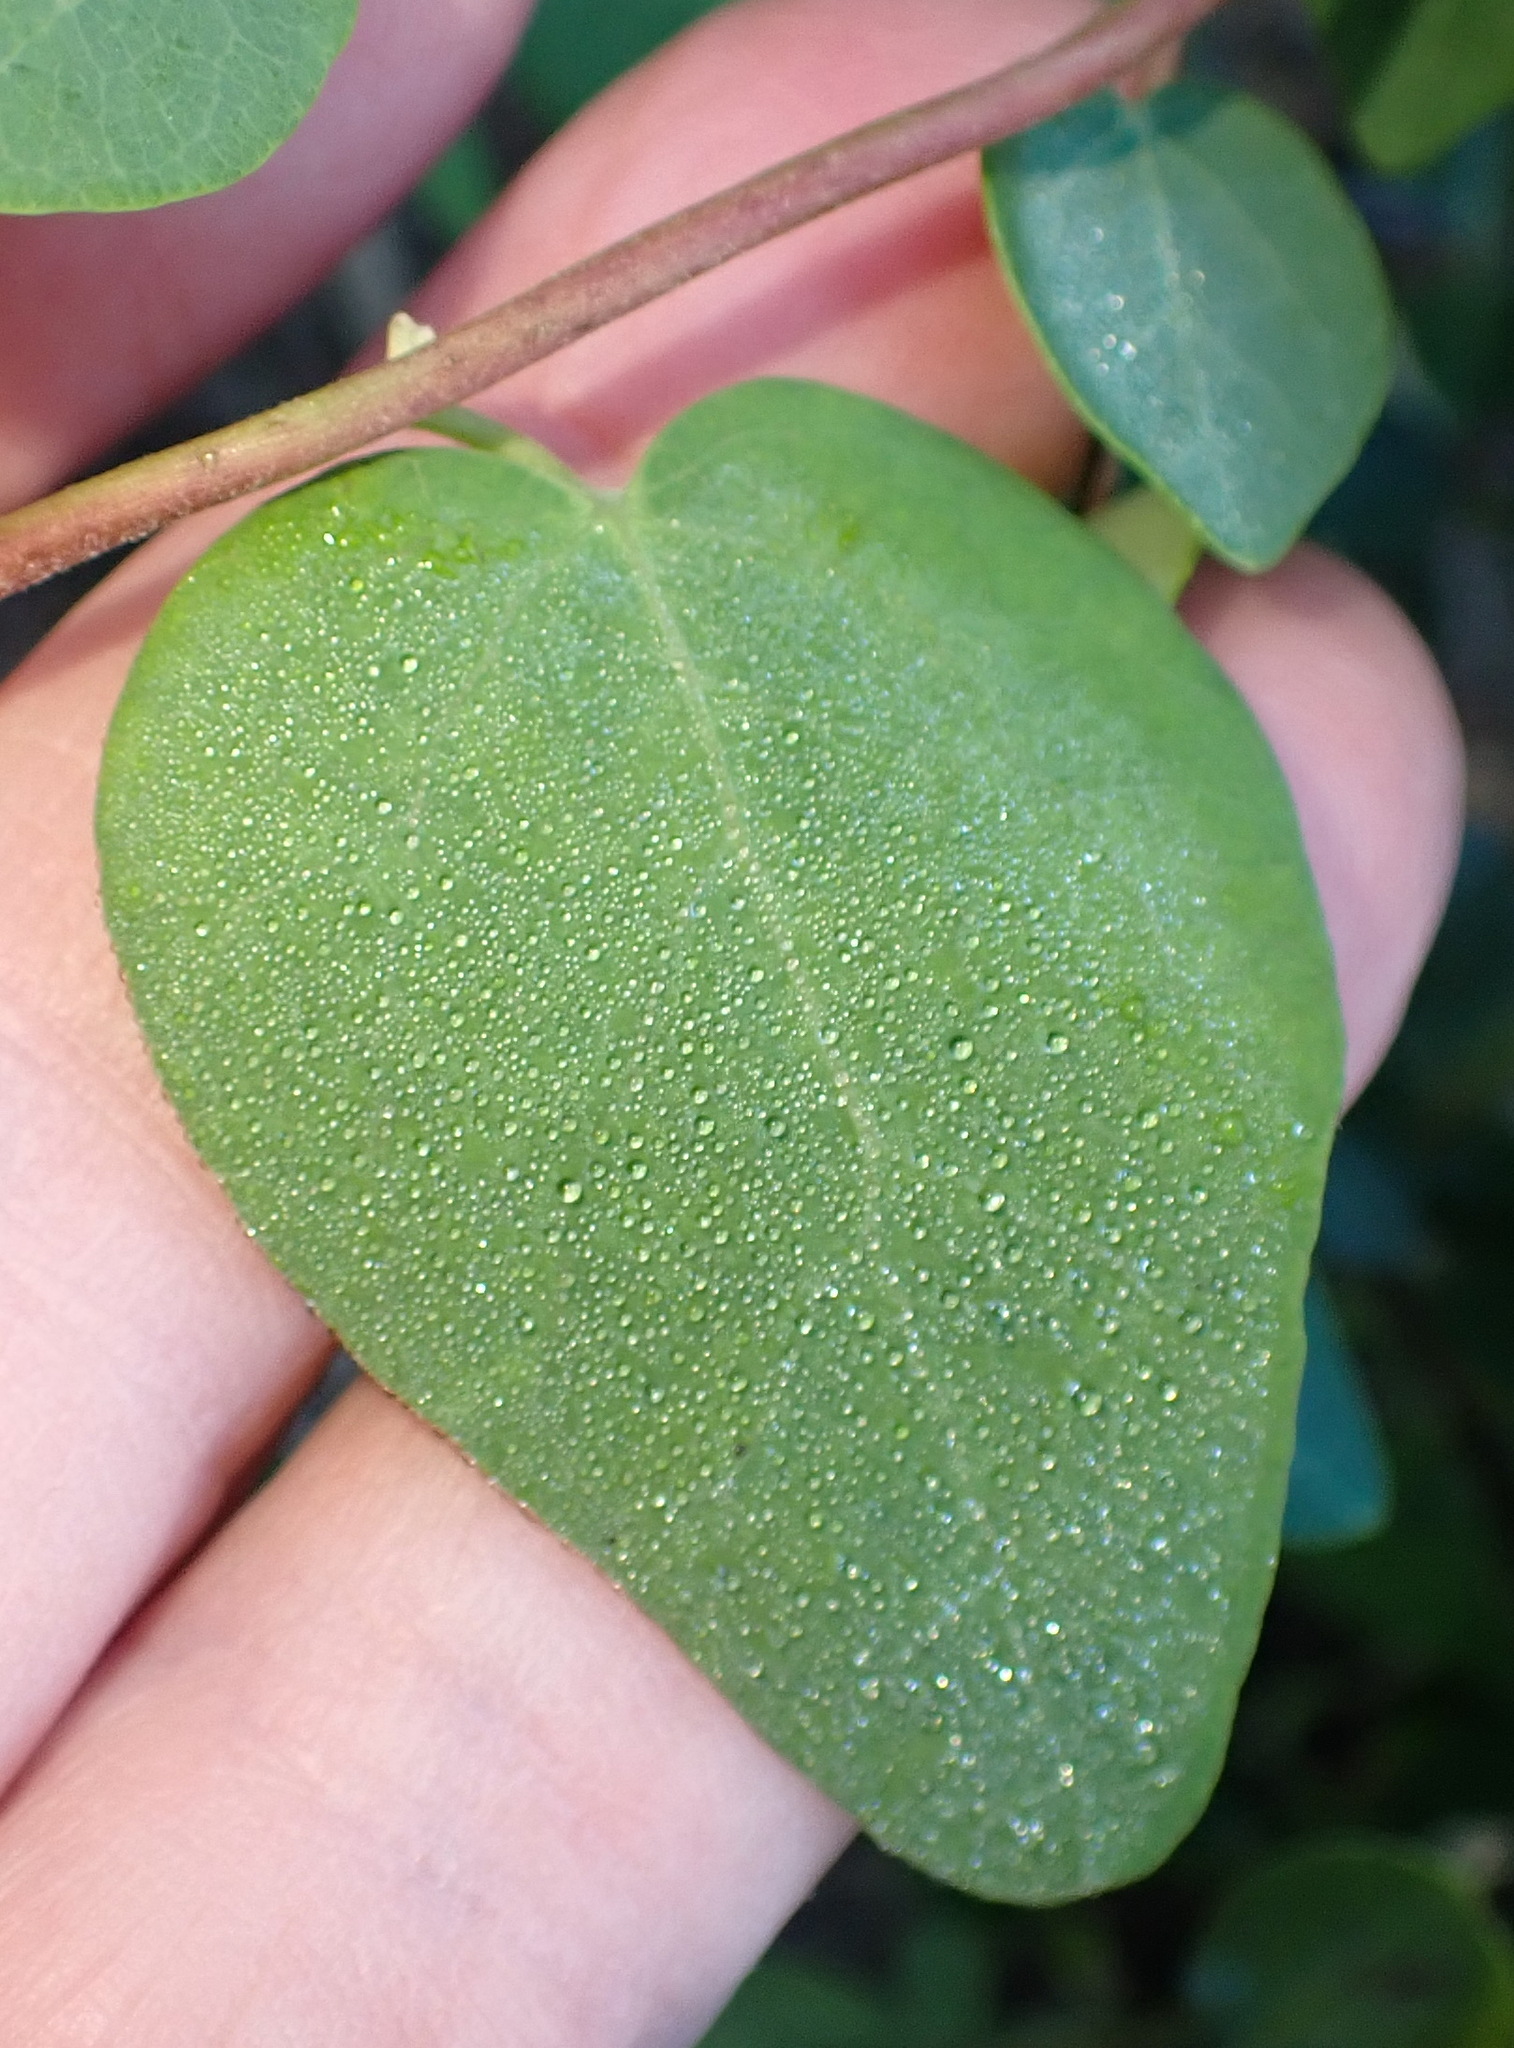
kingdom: Plantae
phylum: Tracheophyta
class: Magnoliopsida
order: Ranunculales
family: Menispermaceae
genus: Cissampelos
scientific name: Cissampelos capensis
